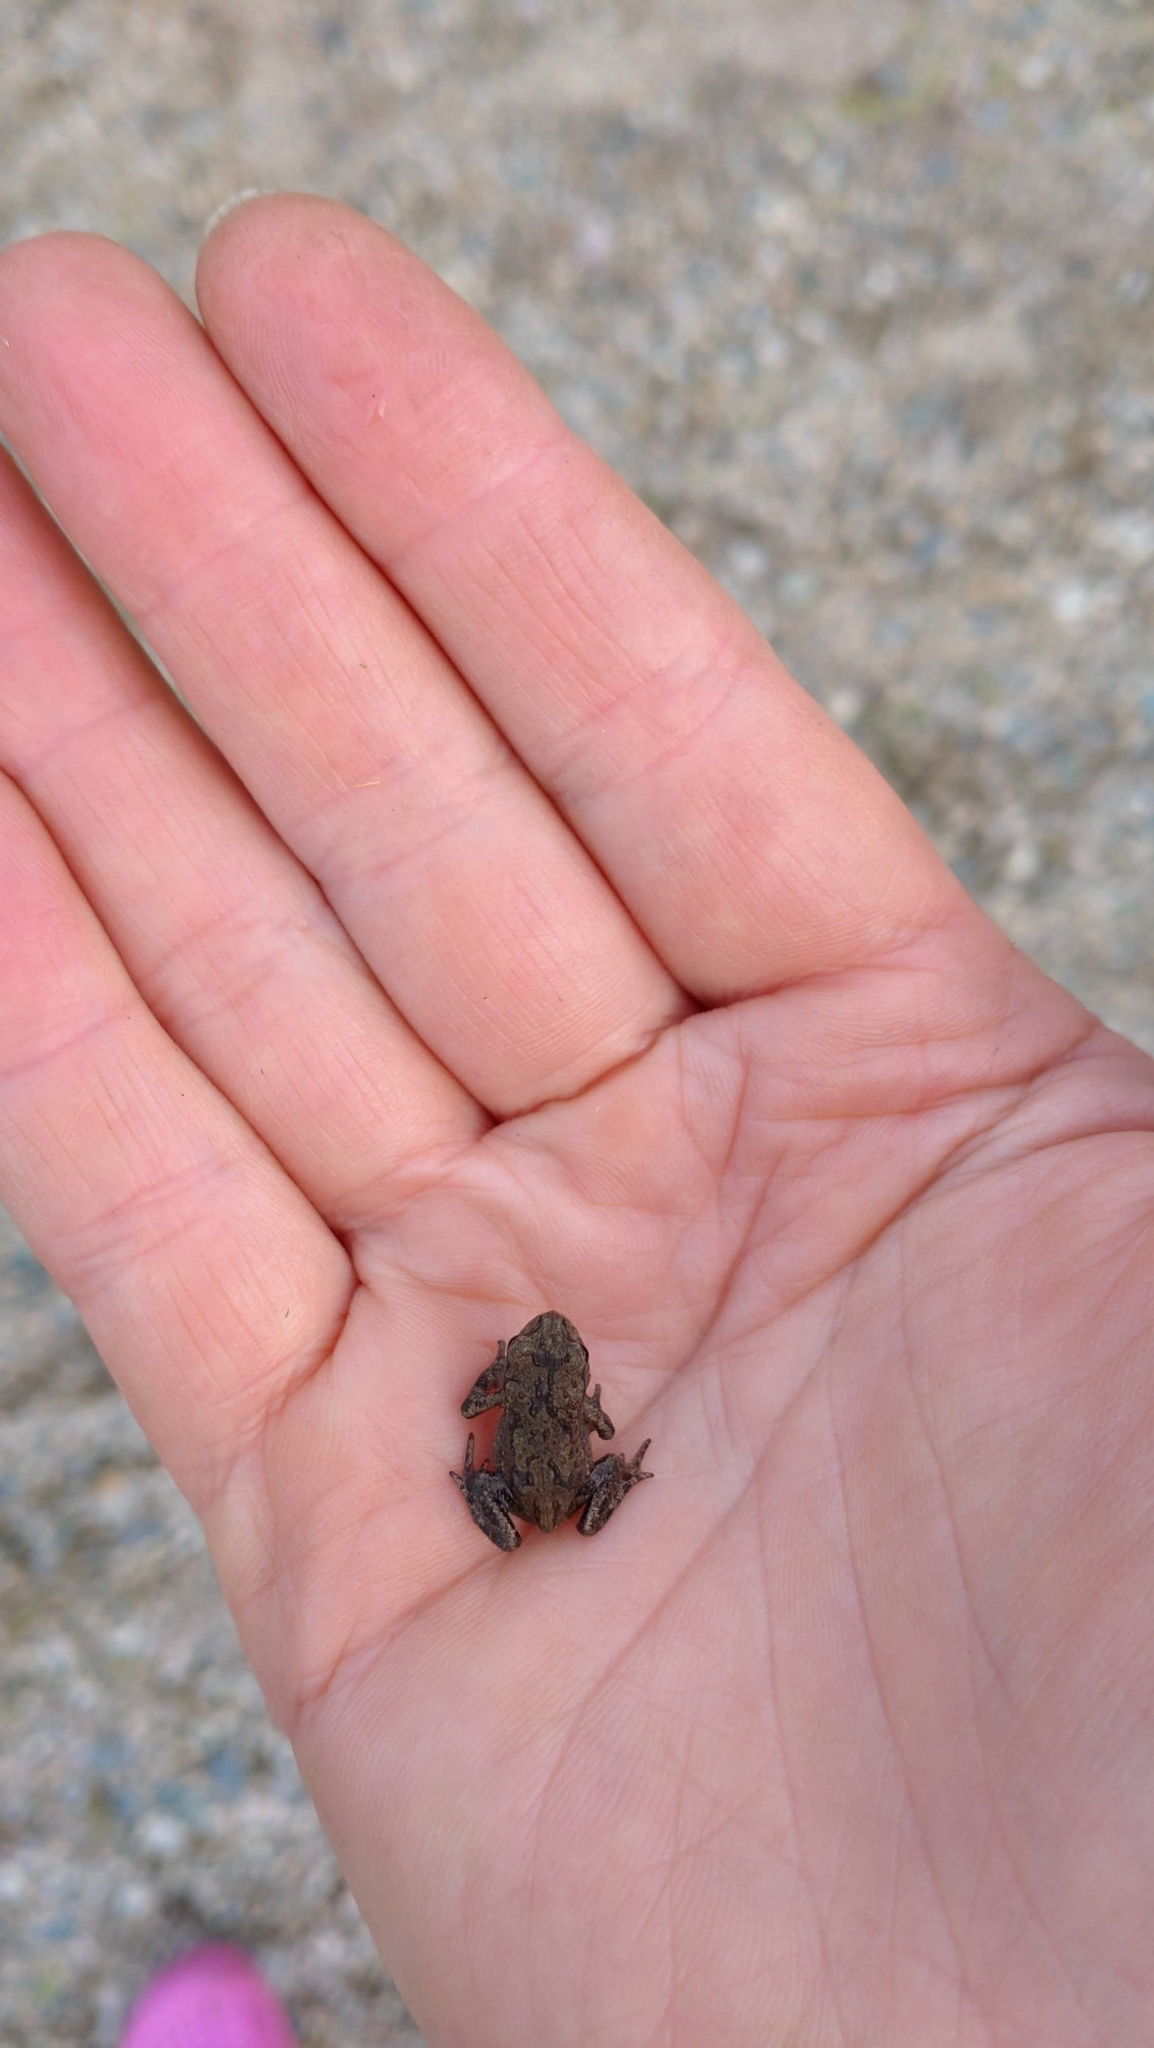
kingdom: Animalia
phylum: Chordata
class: Amphibia
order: Anura
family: Bufonidae
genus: Bufo
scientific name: Bufo bufo
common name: Common toad
